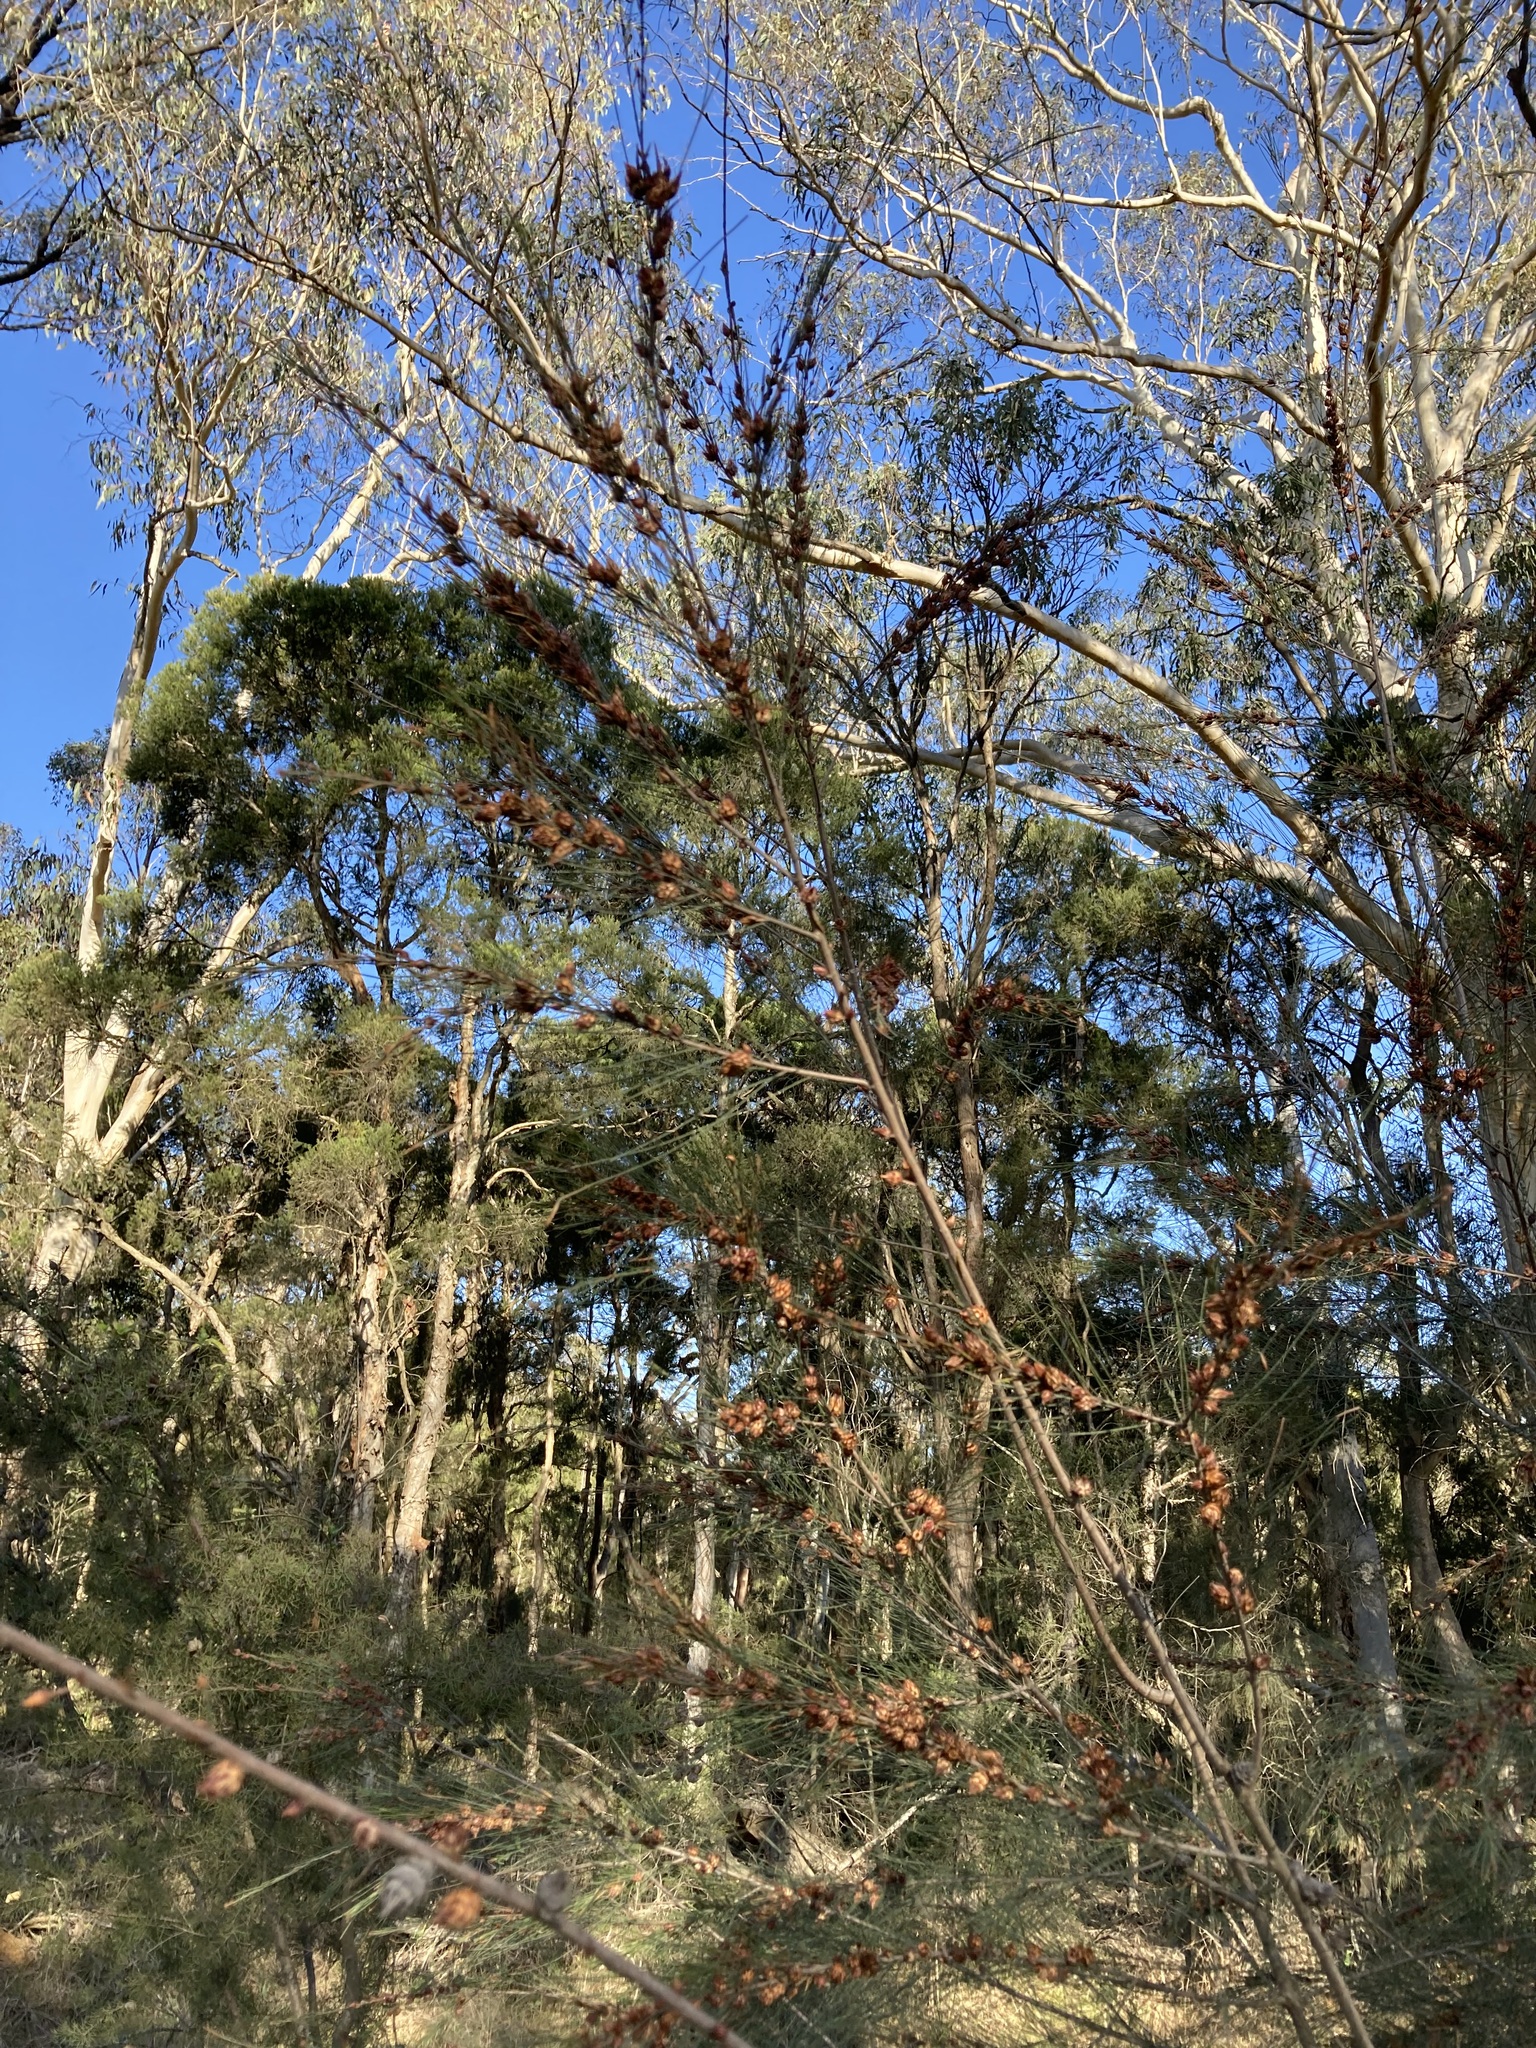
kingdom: Animalia
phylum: Arthropoda
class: Insecta
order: Hemiptera
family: Eriococcidae
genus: Cylindrococcus
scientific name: Cylindrococcus spiniferus
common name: Casuarina gall
